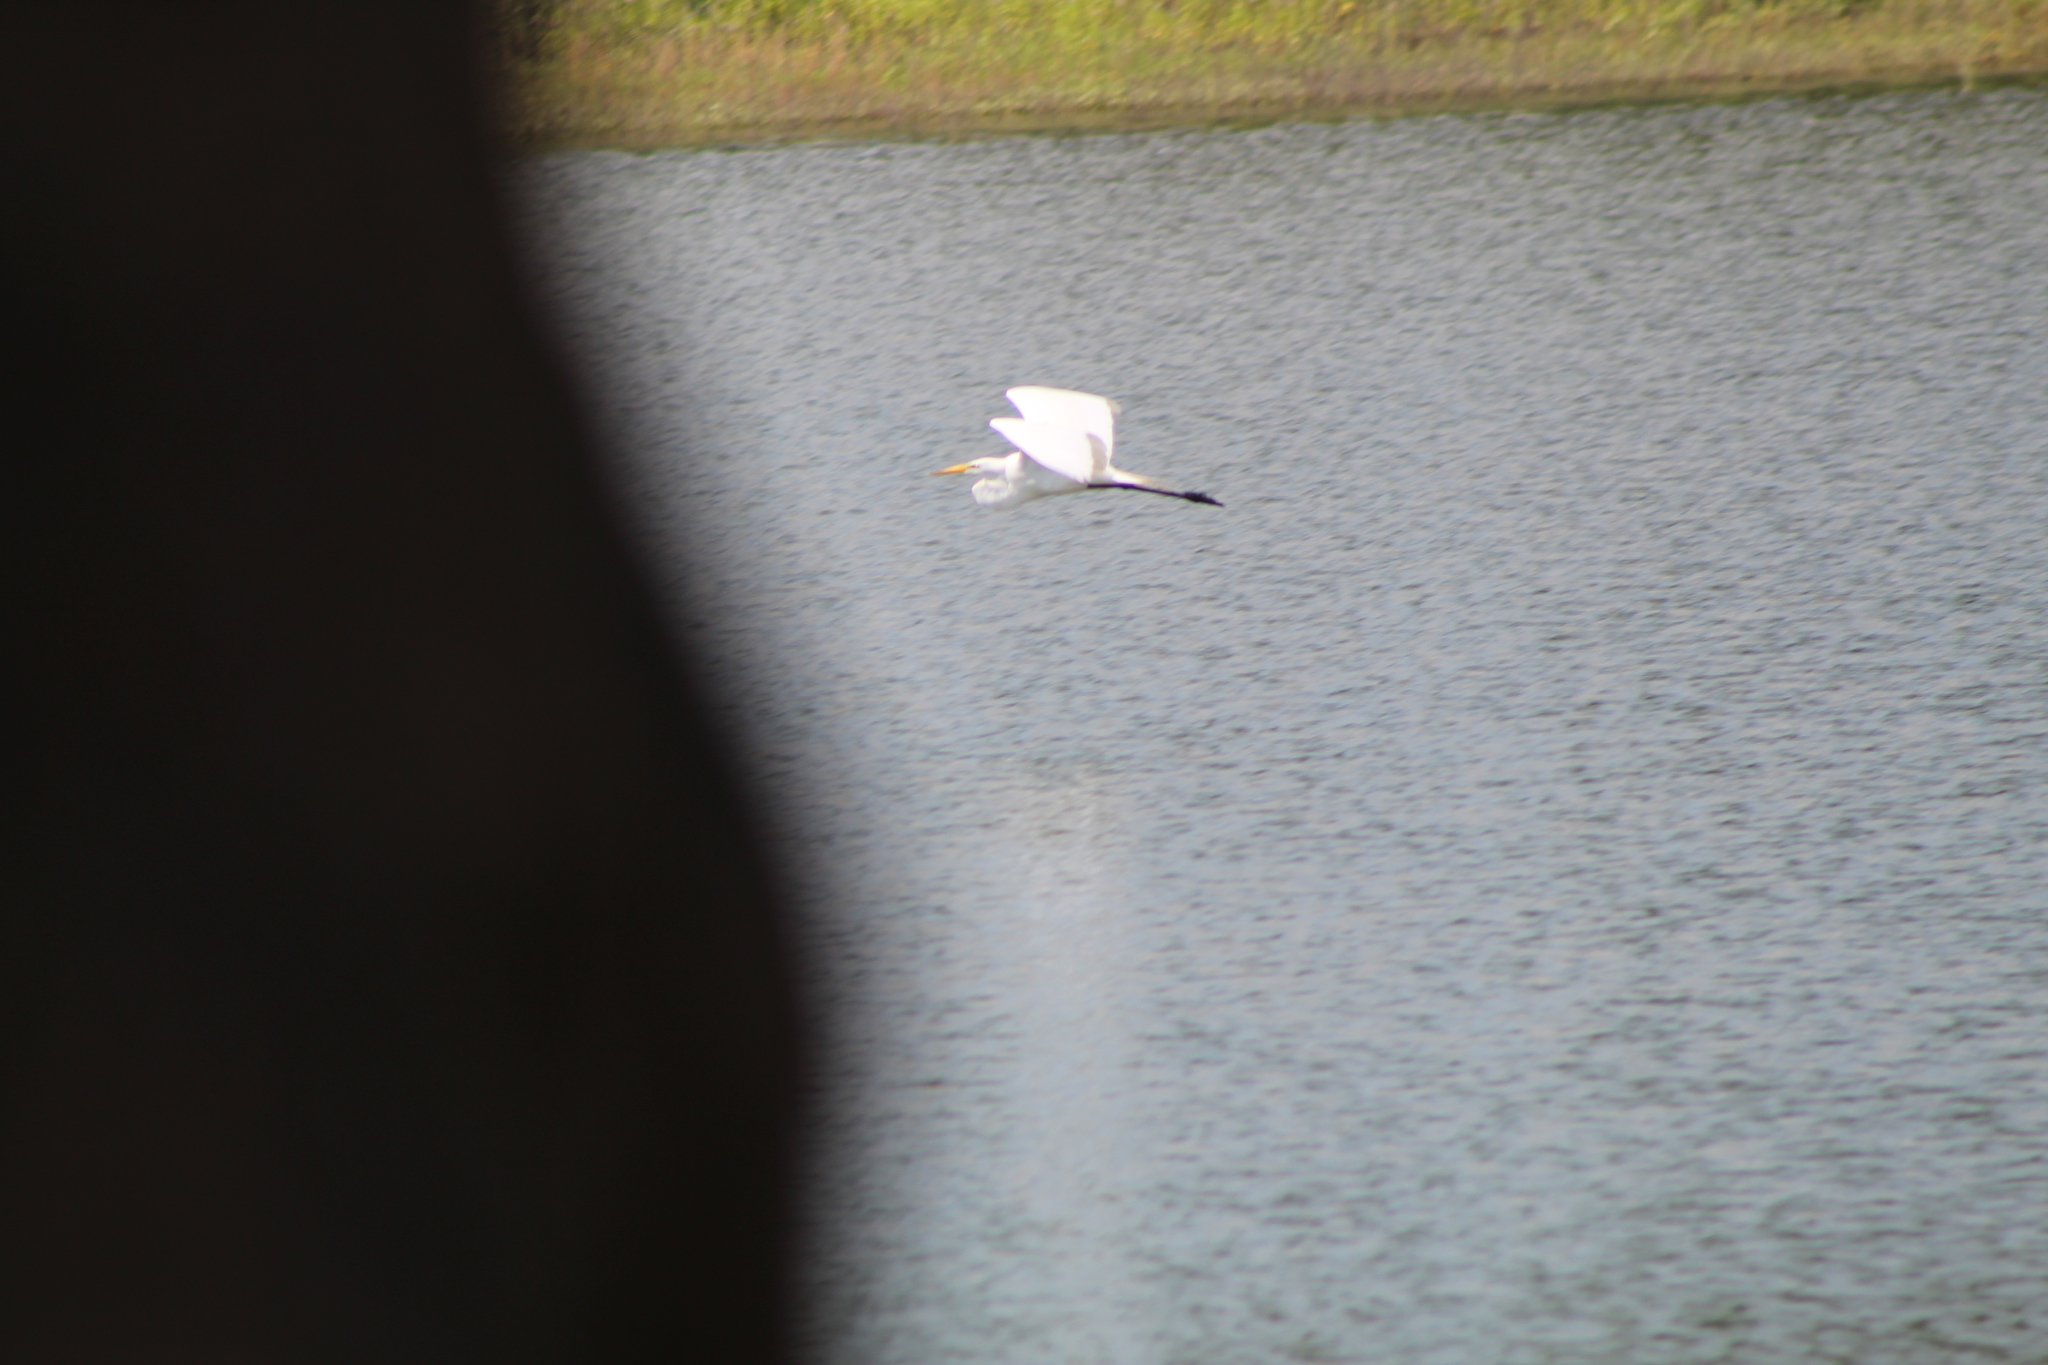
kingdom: Animalia
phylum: Chordata
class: Aves
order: Pelecaniformes
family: Ardeidae
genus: Ardea
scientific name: Ardea alba
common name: Great egret
